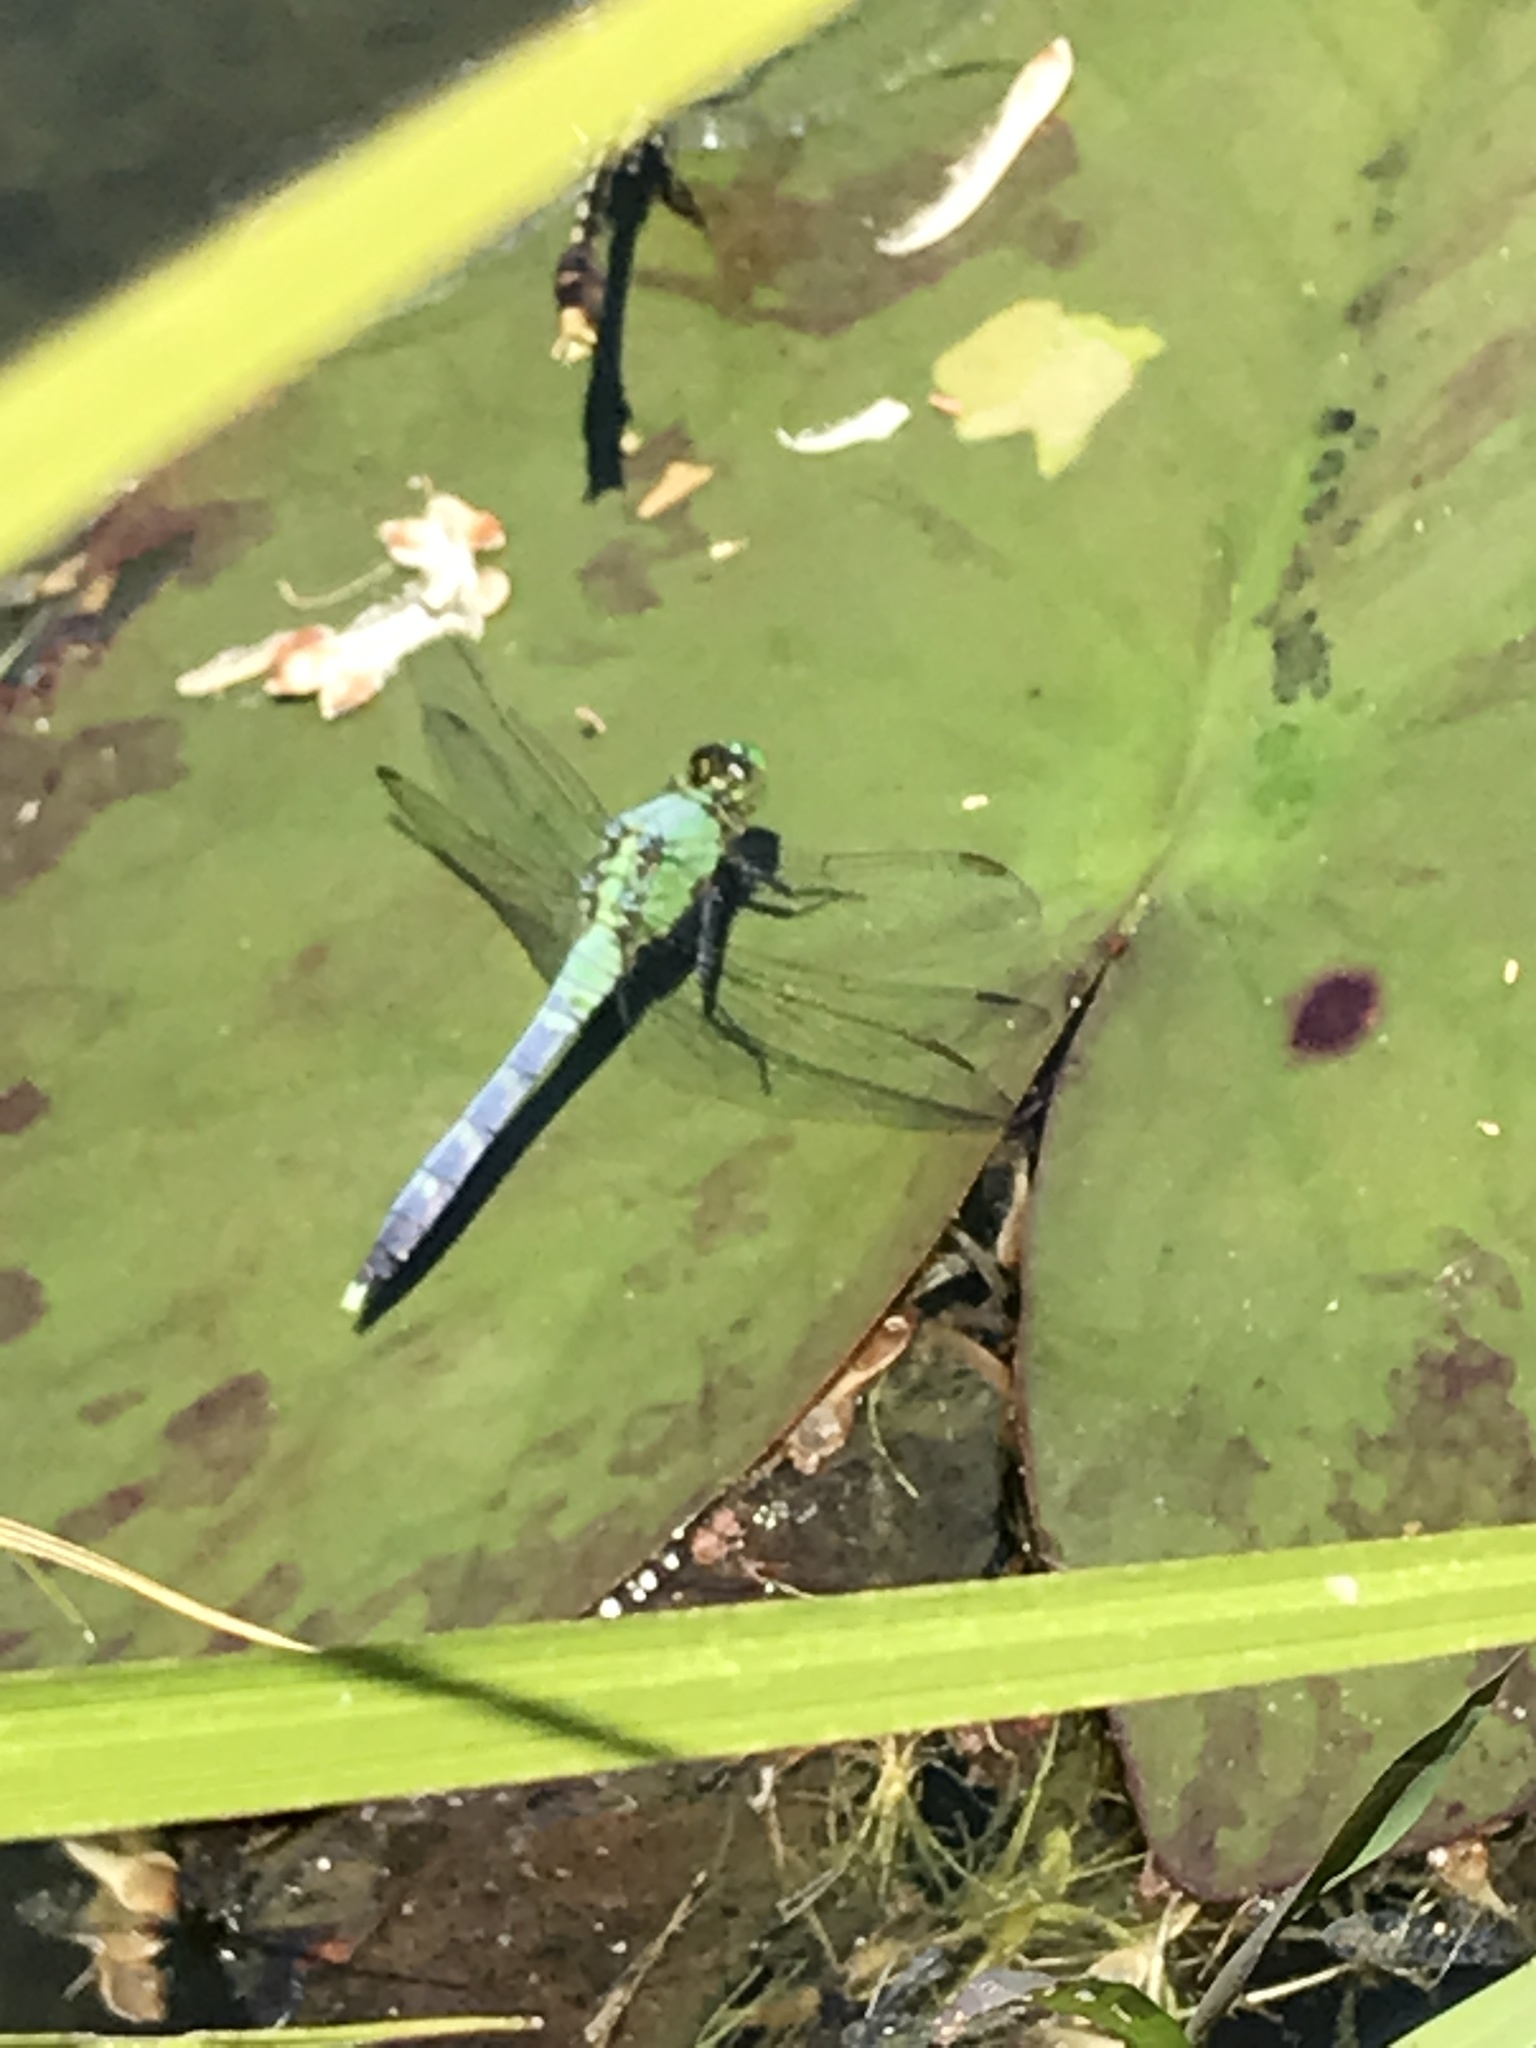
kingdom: Animalia
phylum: Arthropoda
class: Insecta
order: Odonata
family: Libellulidae
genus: Erythemis
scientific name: Erythemis simplicicollis
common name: Eastern pondhawk
